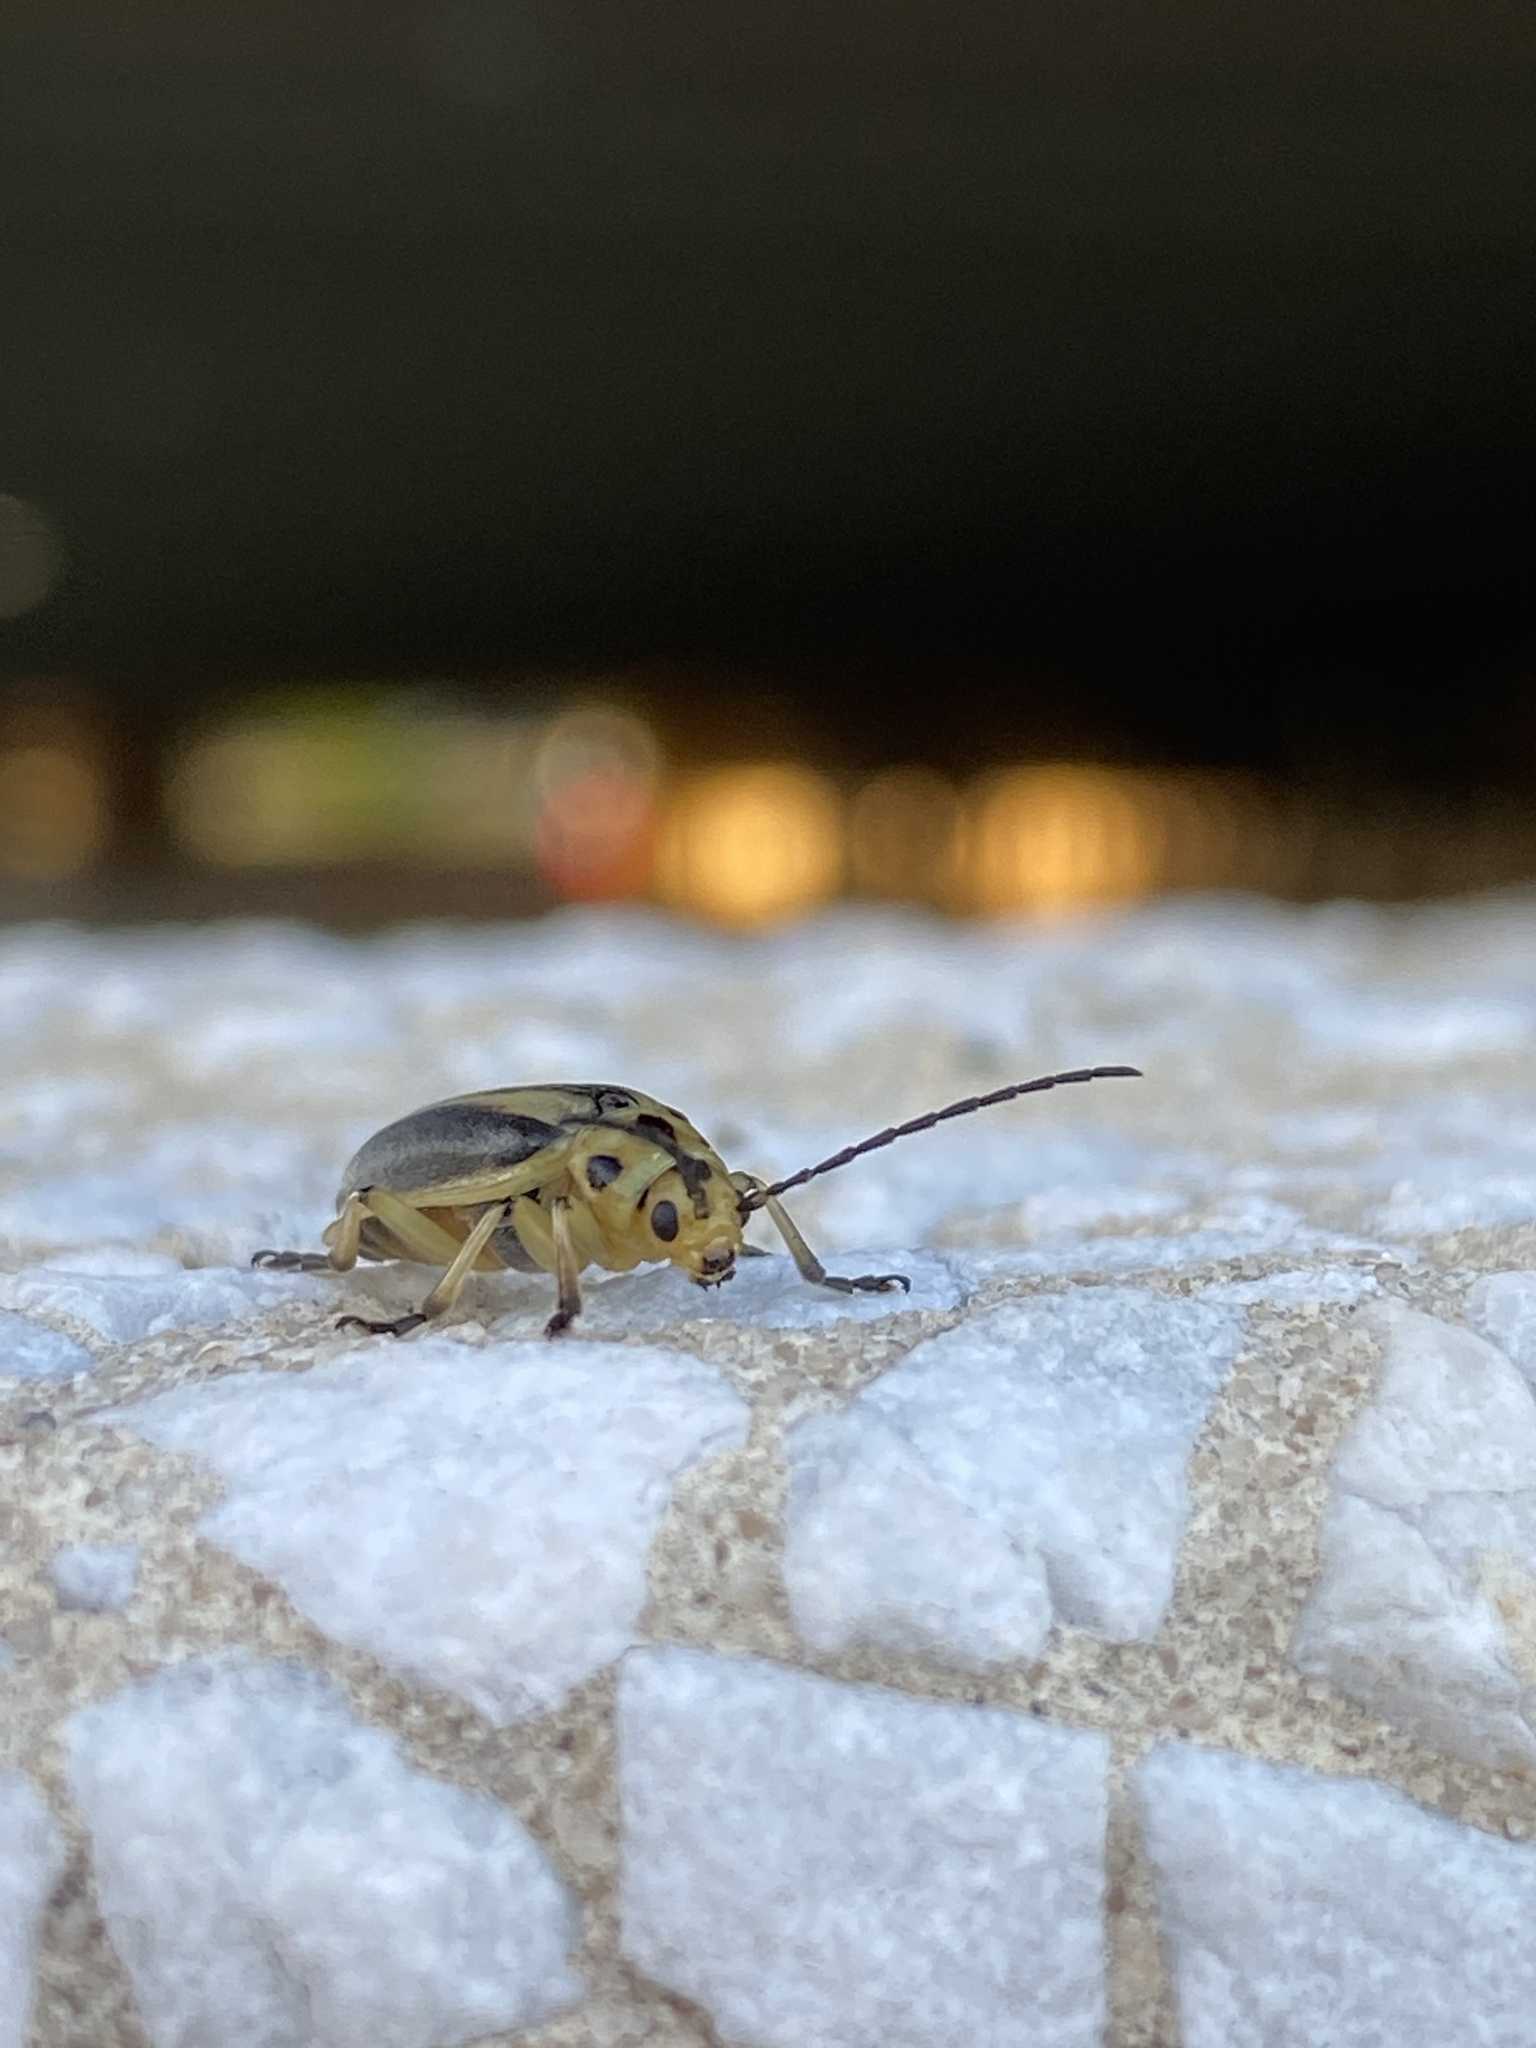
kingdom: Animalia
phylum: Arthropoda
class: Insecta
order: Coleoptera
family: Chrysomelidae
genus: Trirhabda
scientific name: Trirhabda bacharidis
